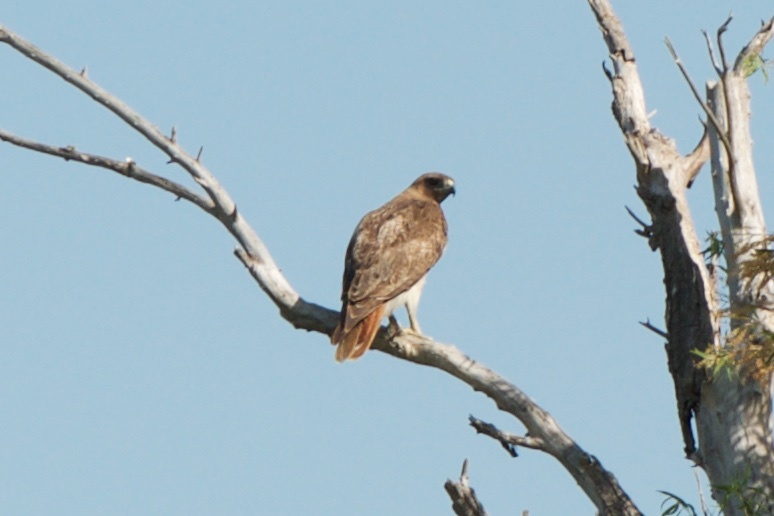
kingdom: Animalia
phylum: Chordata
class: Aves
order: Accipitriformes
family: Accipitridae
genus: Buteo
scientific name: Buteo jamaicensis
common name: Red-tailed hawk
